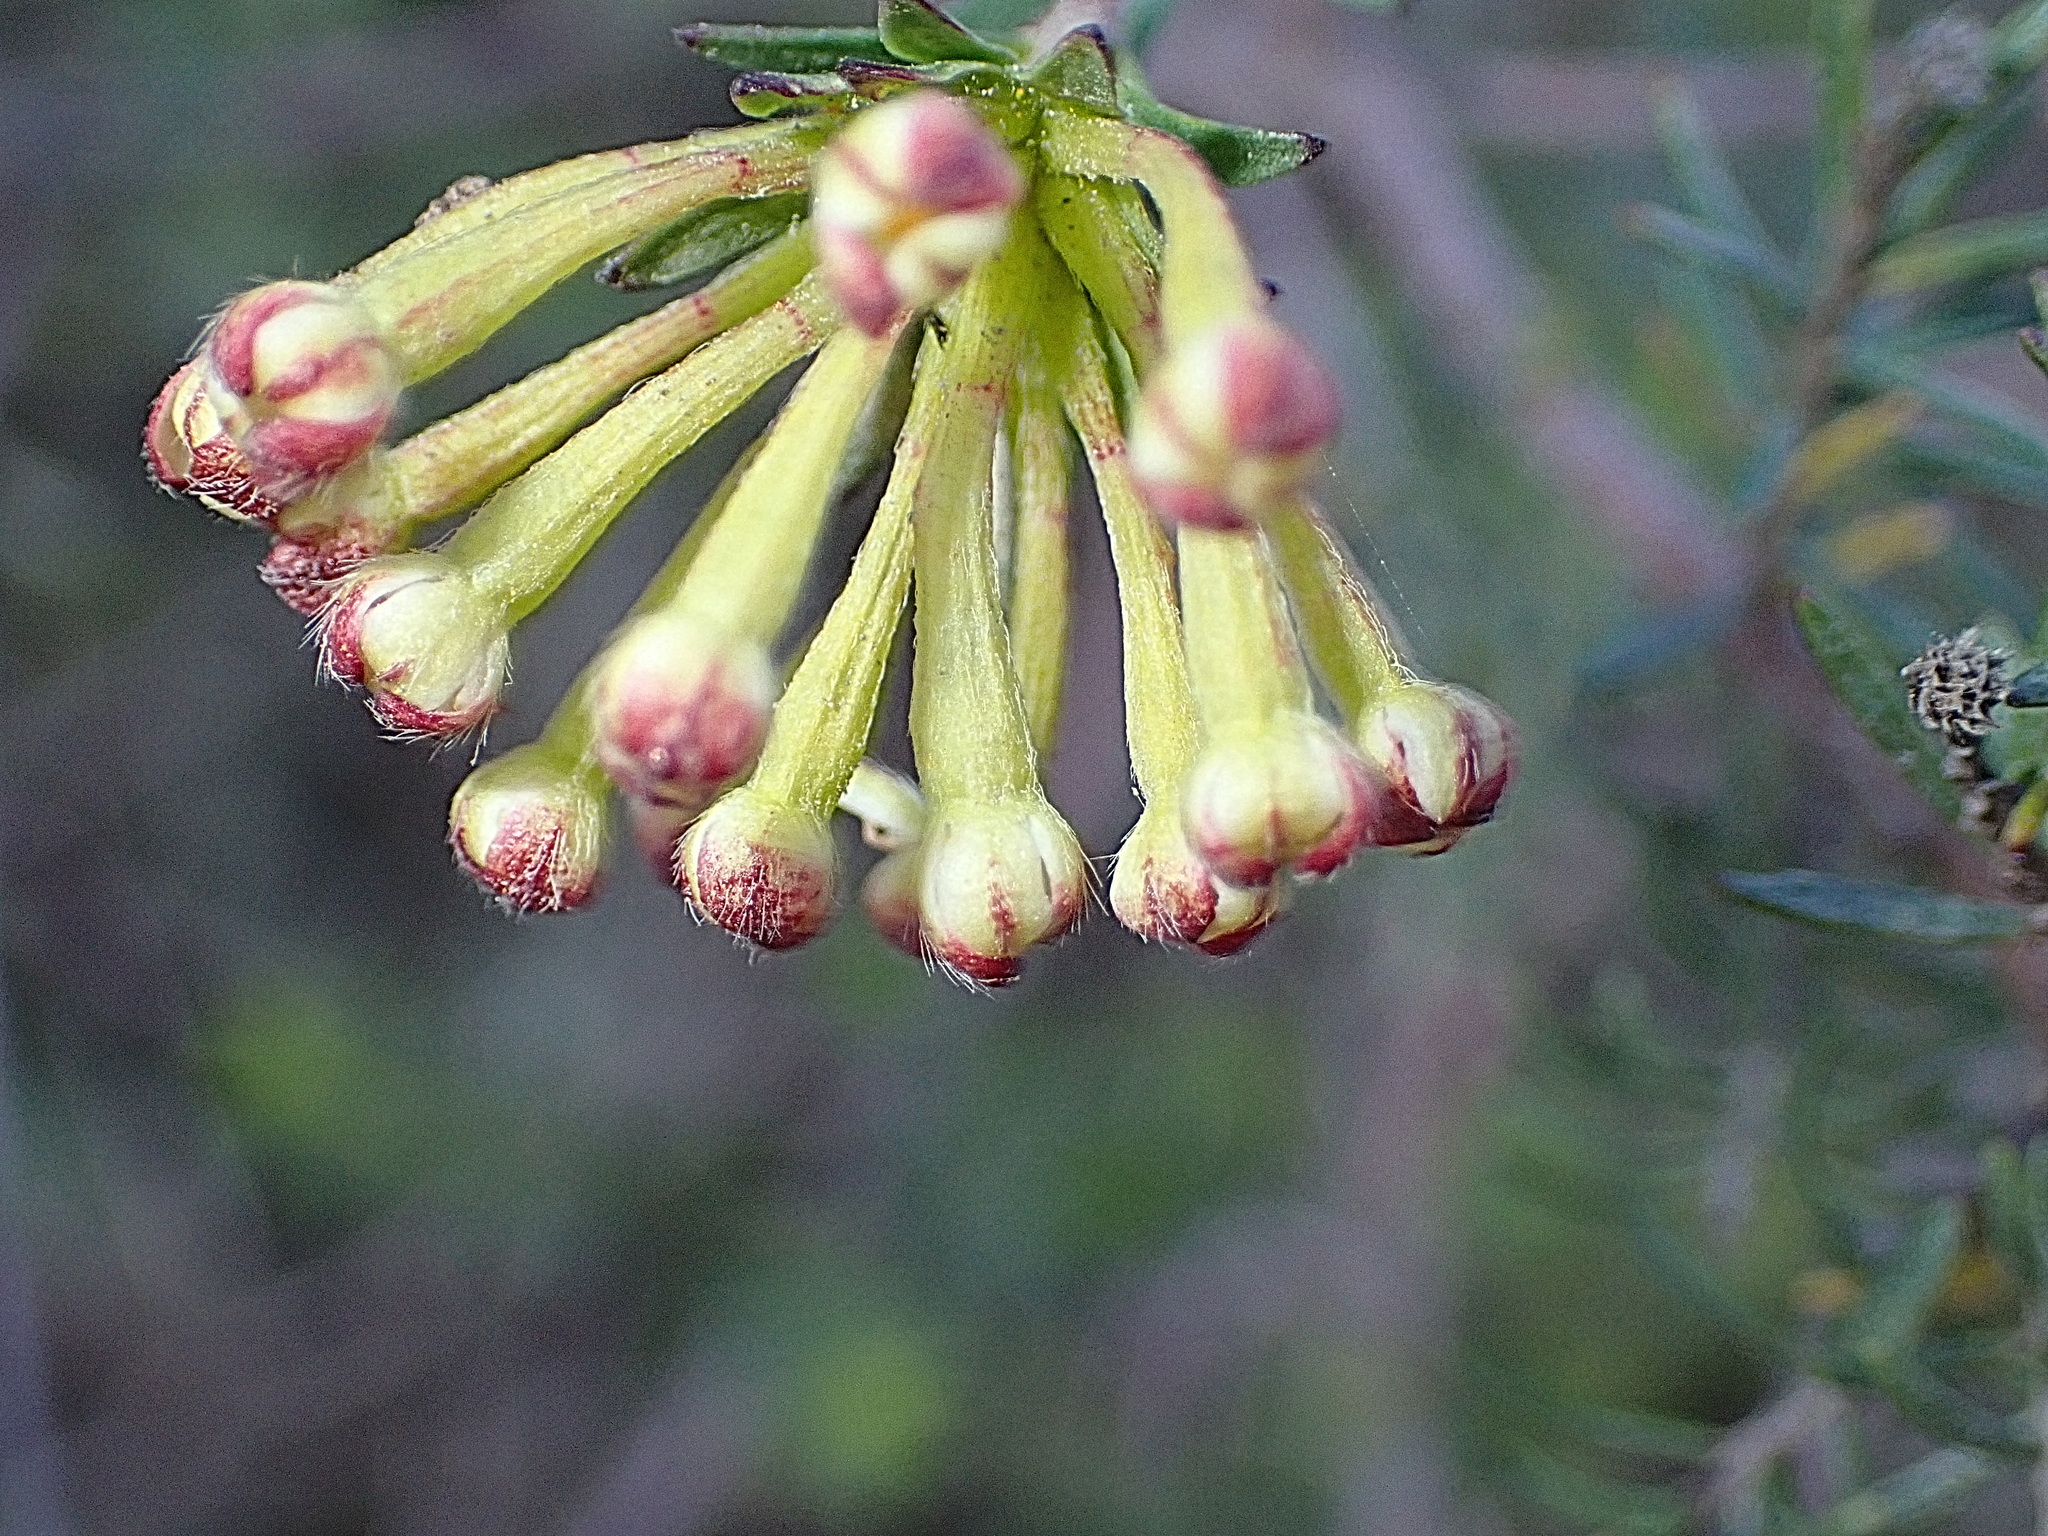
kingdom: Plantae
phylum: Tracheophyta
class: Magnoliopsida
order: Malvales
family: Thymelaeaceae
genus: Gnidia
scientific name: Gnidia squarrosa
